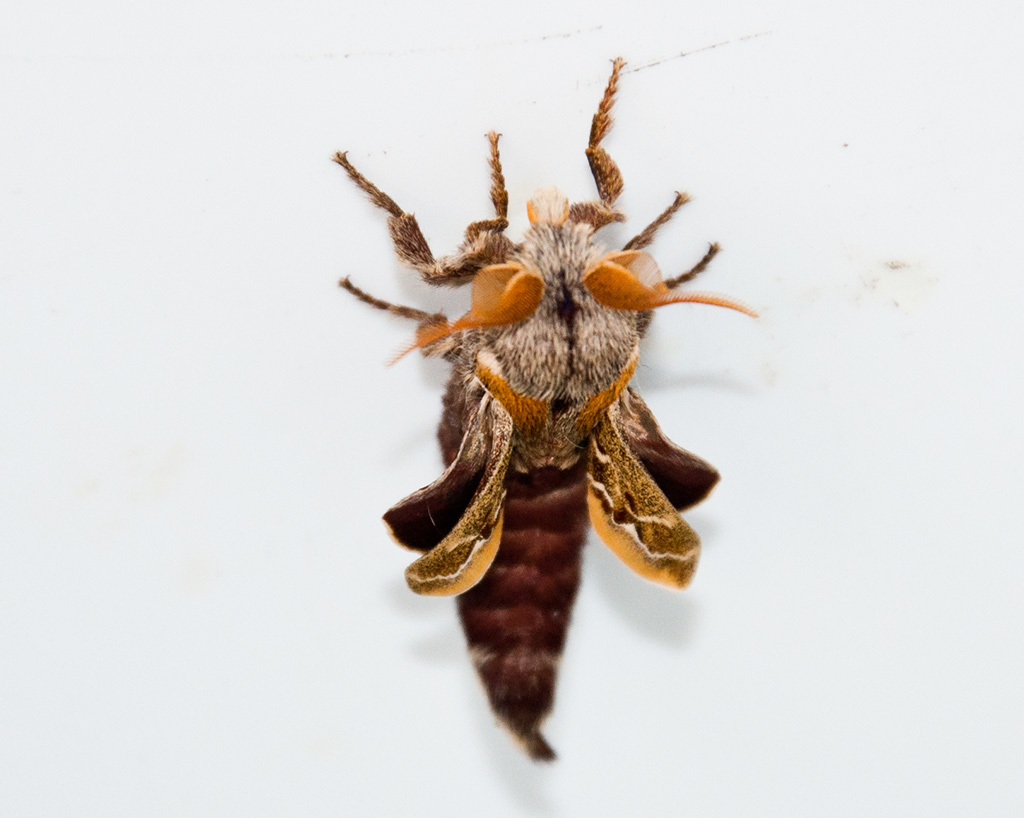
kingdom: Animalia
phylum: Arthropoda
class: Insecta
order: Lepidoptera
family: Lasiocampidae
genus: Streblote
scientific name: Streblote cristata
